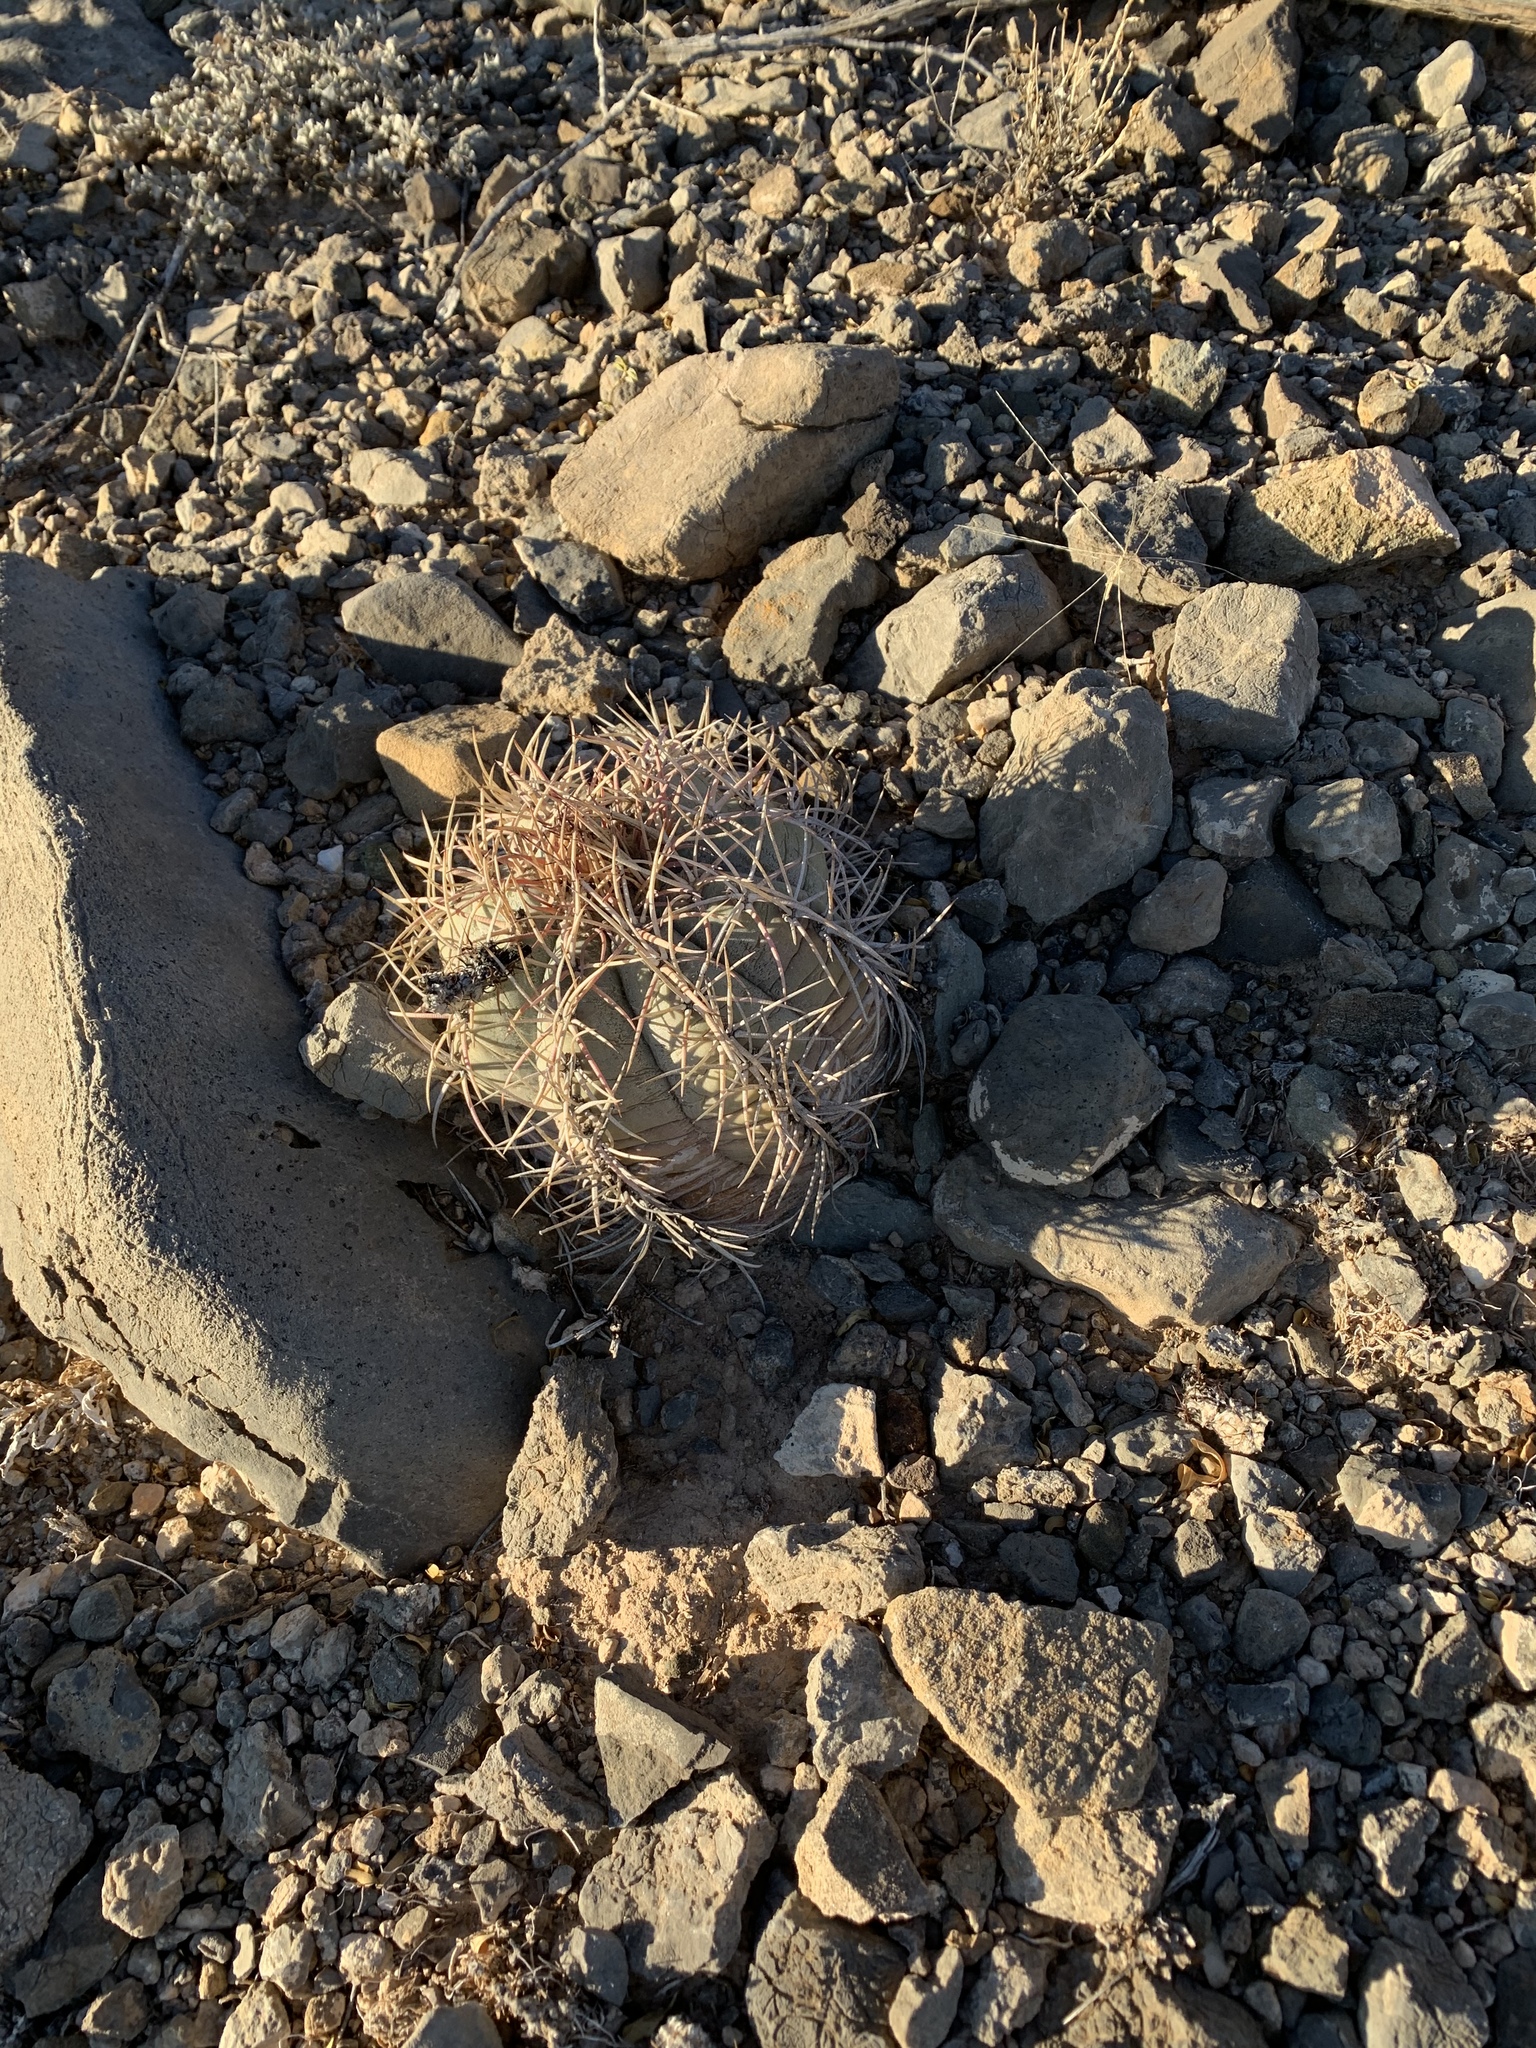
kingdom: Plantae
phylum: Tracheophyta
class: Magnoliopsida
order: Caryophyllales
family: Cactaceae
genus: Echinocactus
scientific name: Echinocactus horizonthalonius
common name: Devilshead
